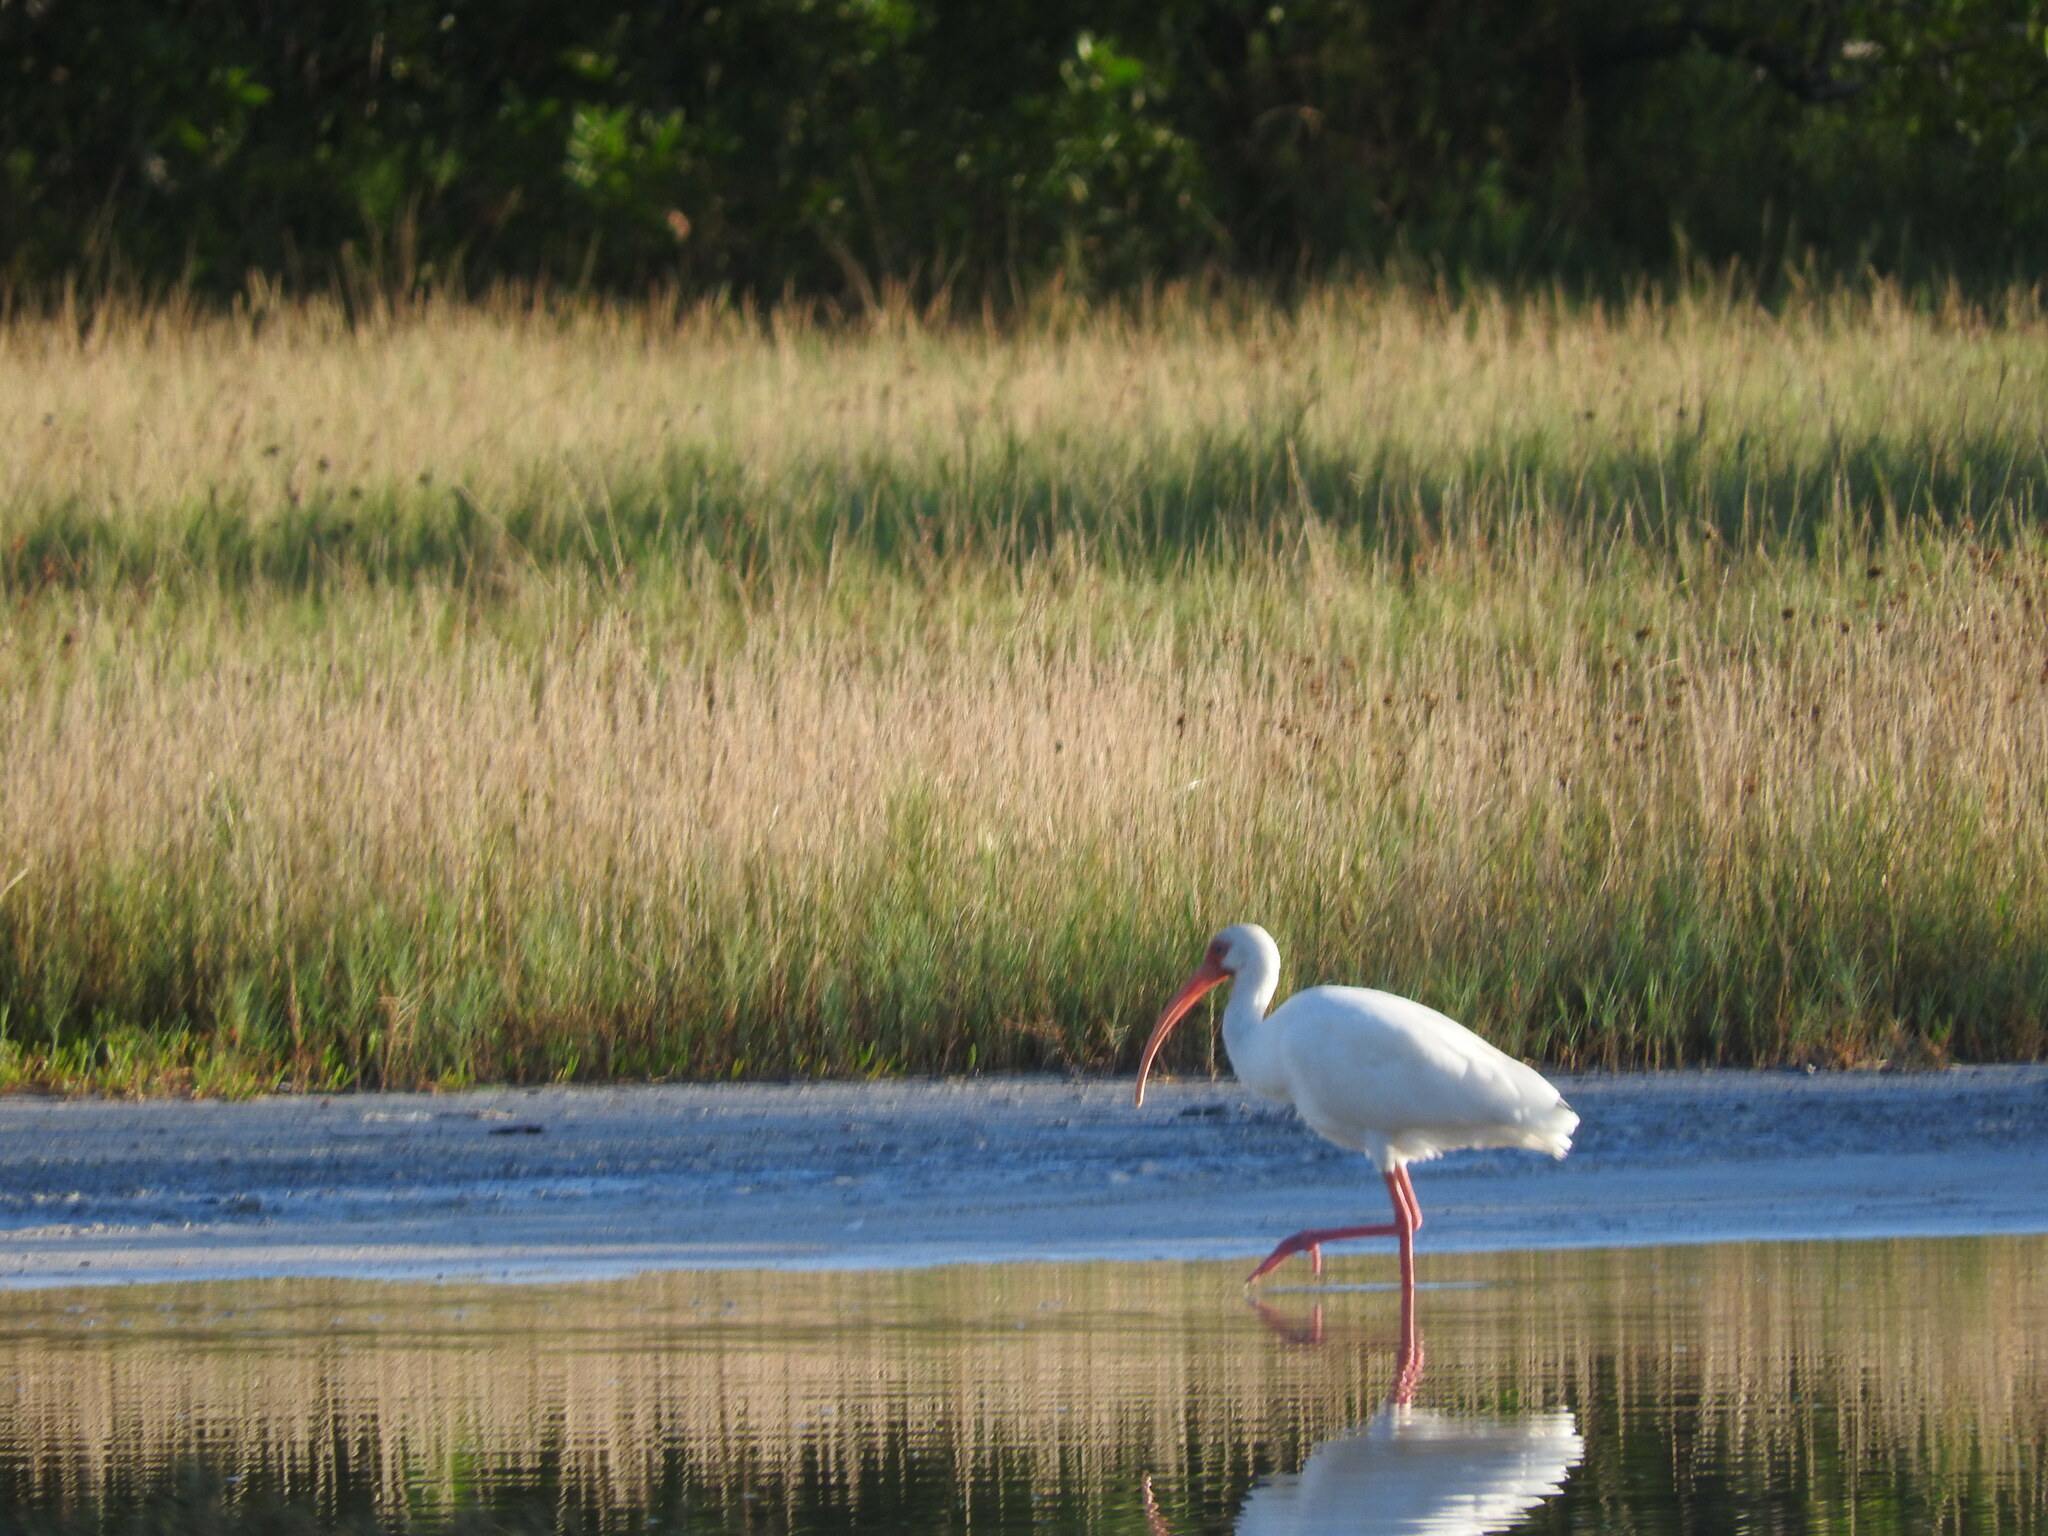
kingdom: Animalia
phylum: Chordata
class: Aves
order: Pelecaniformes
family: Threskiornithidae
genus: Eudocimus
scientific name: Eudocimus albus
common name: White ibis
